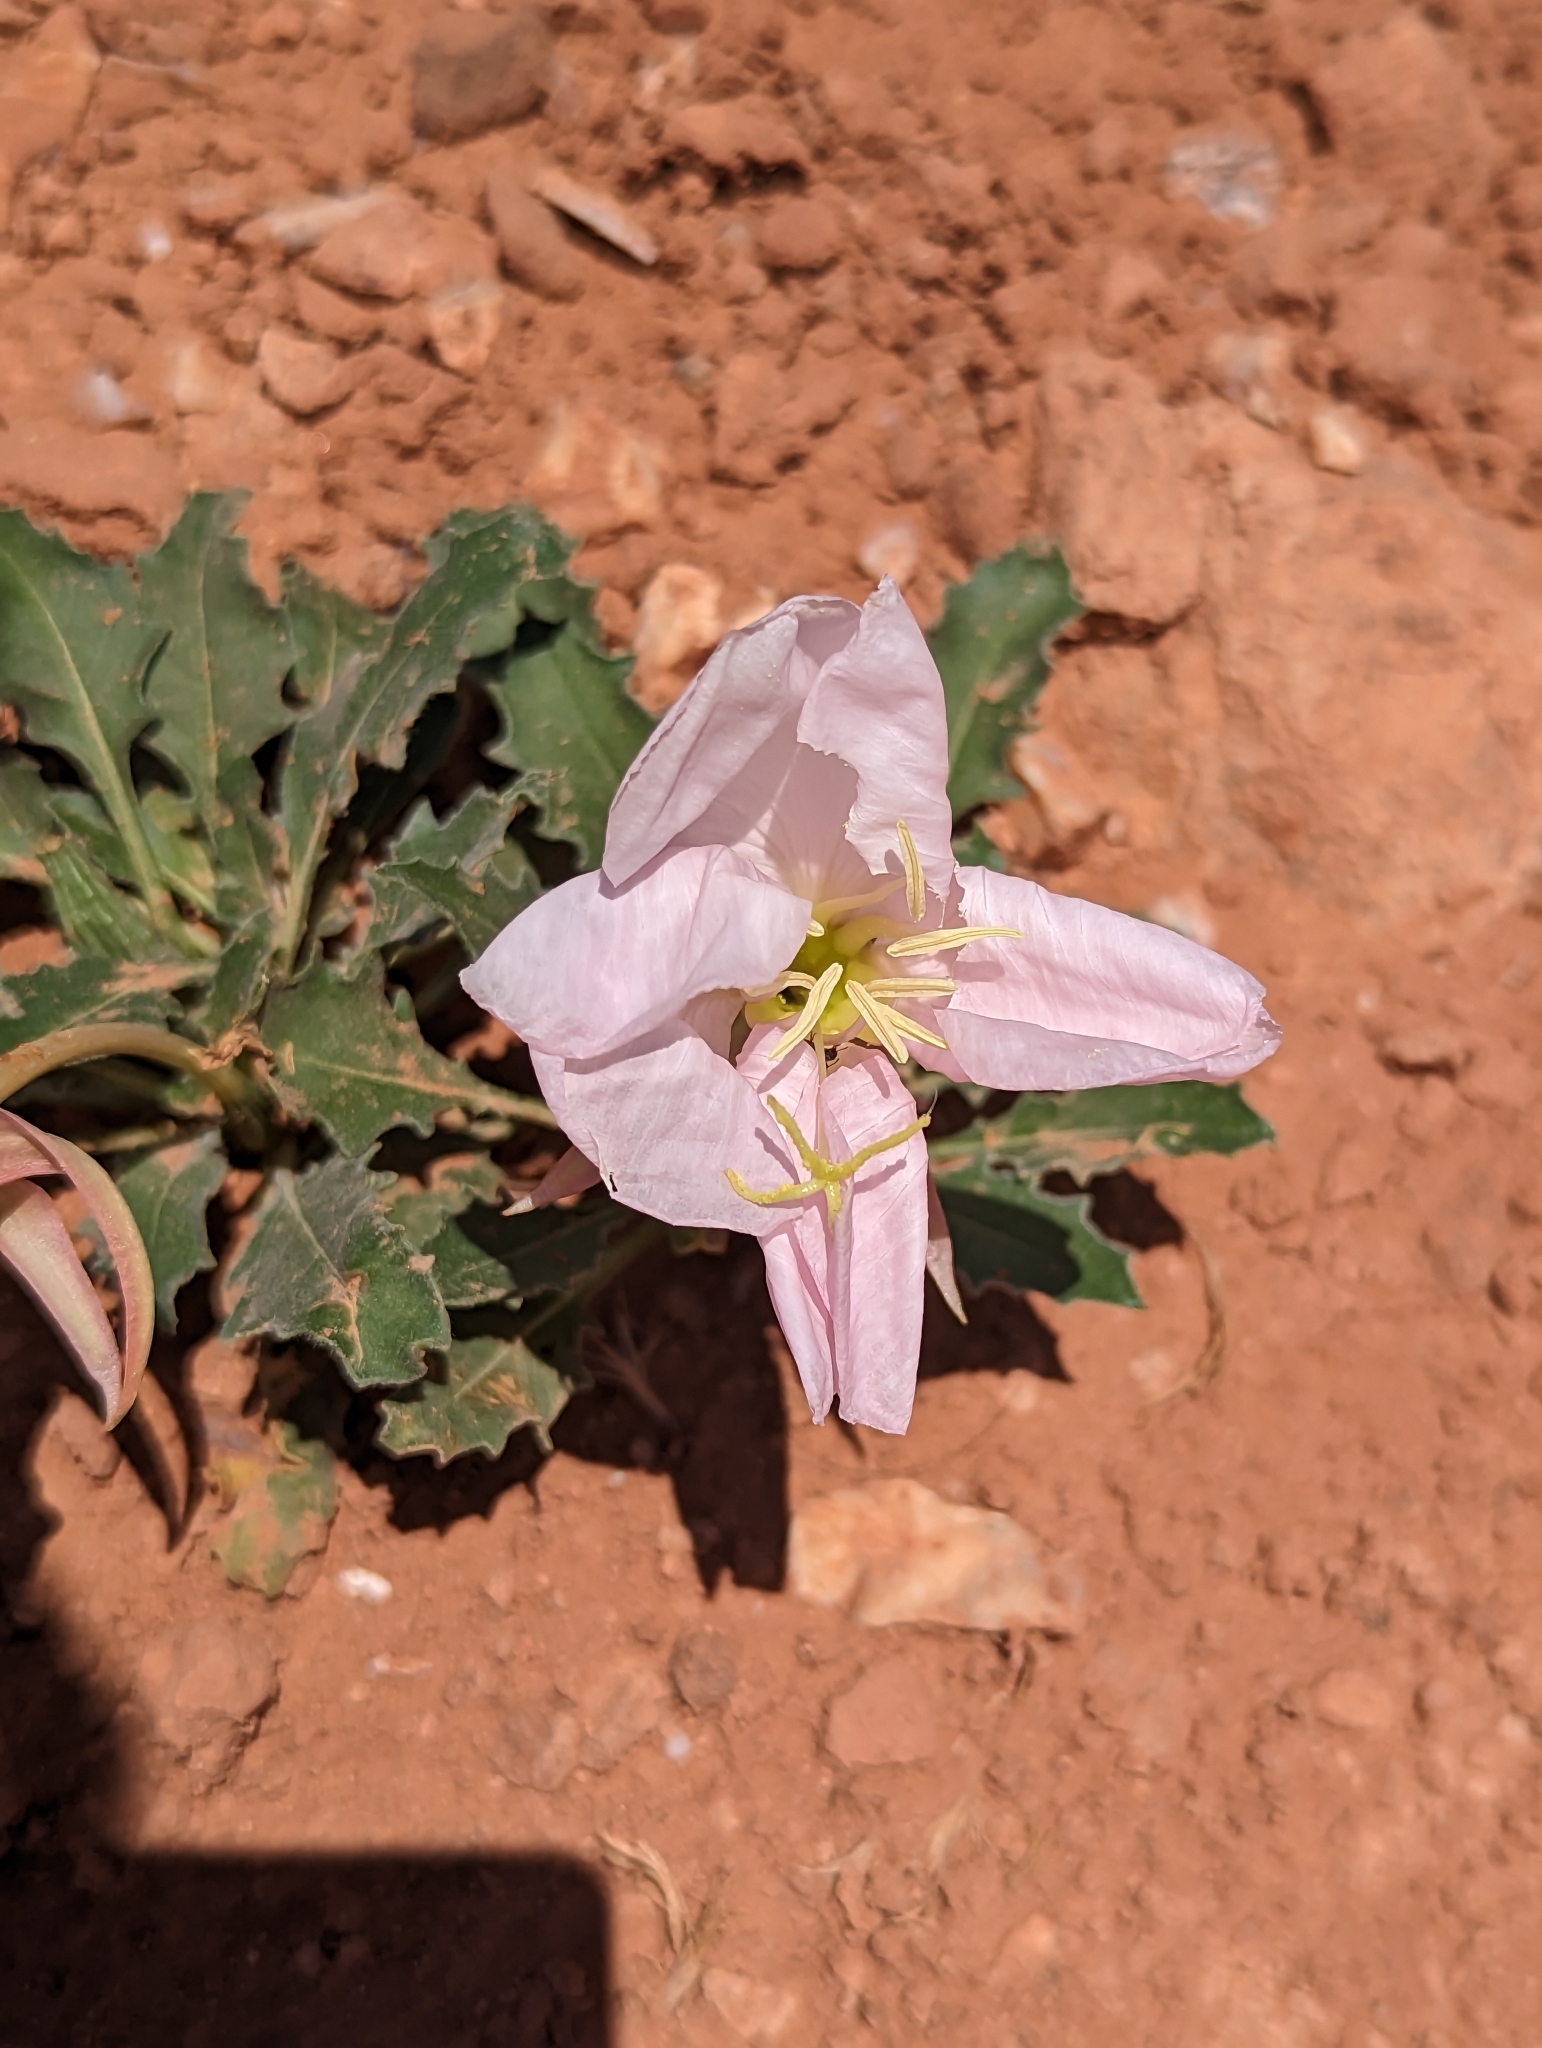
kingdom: Plantae
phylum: Tracheophyta
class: Magnoliopsida
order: Myrtales
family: Onagraceae
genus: Oenothera
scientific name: Oenothera cespitosa
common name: Tufted evening-primrose
